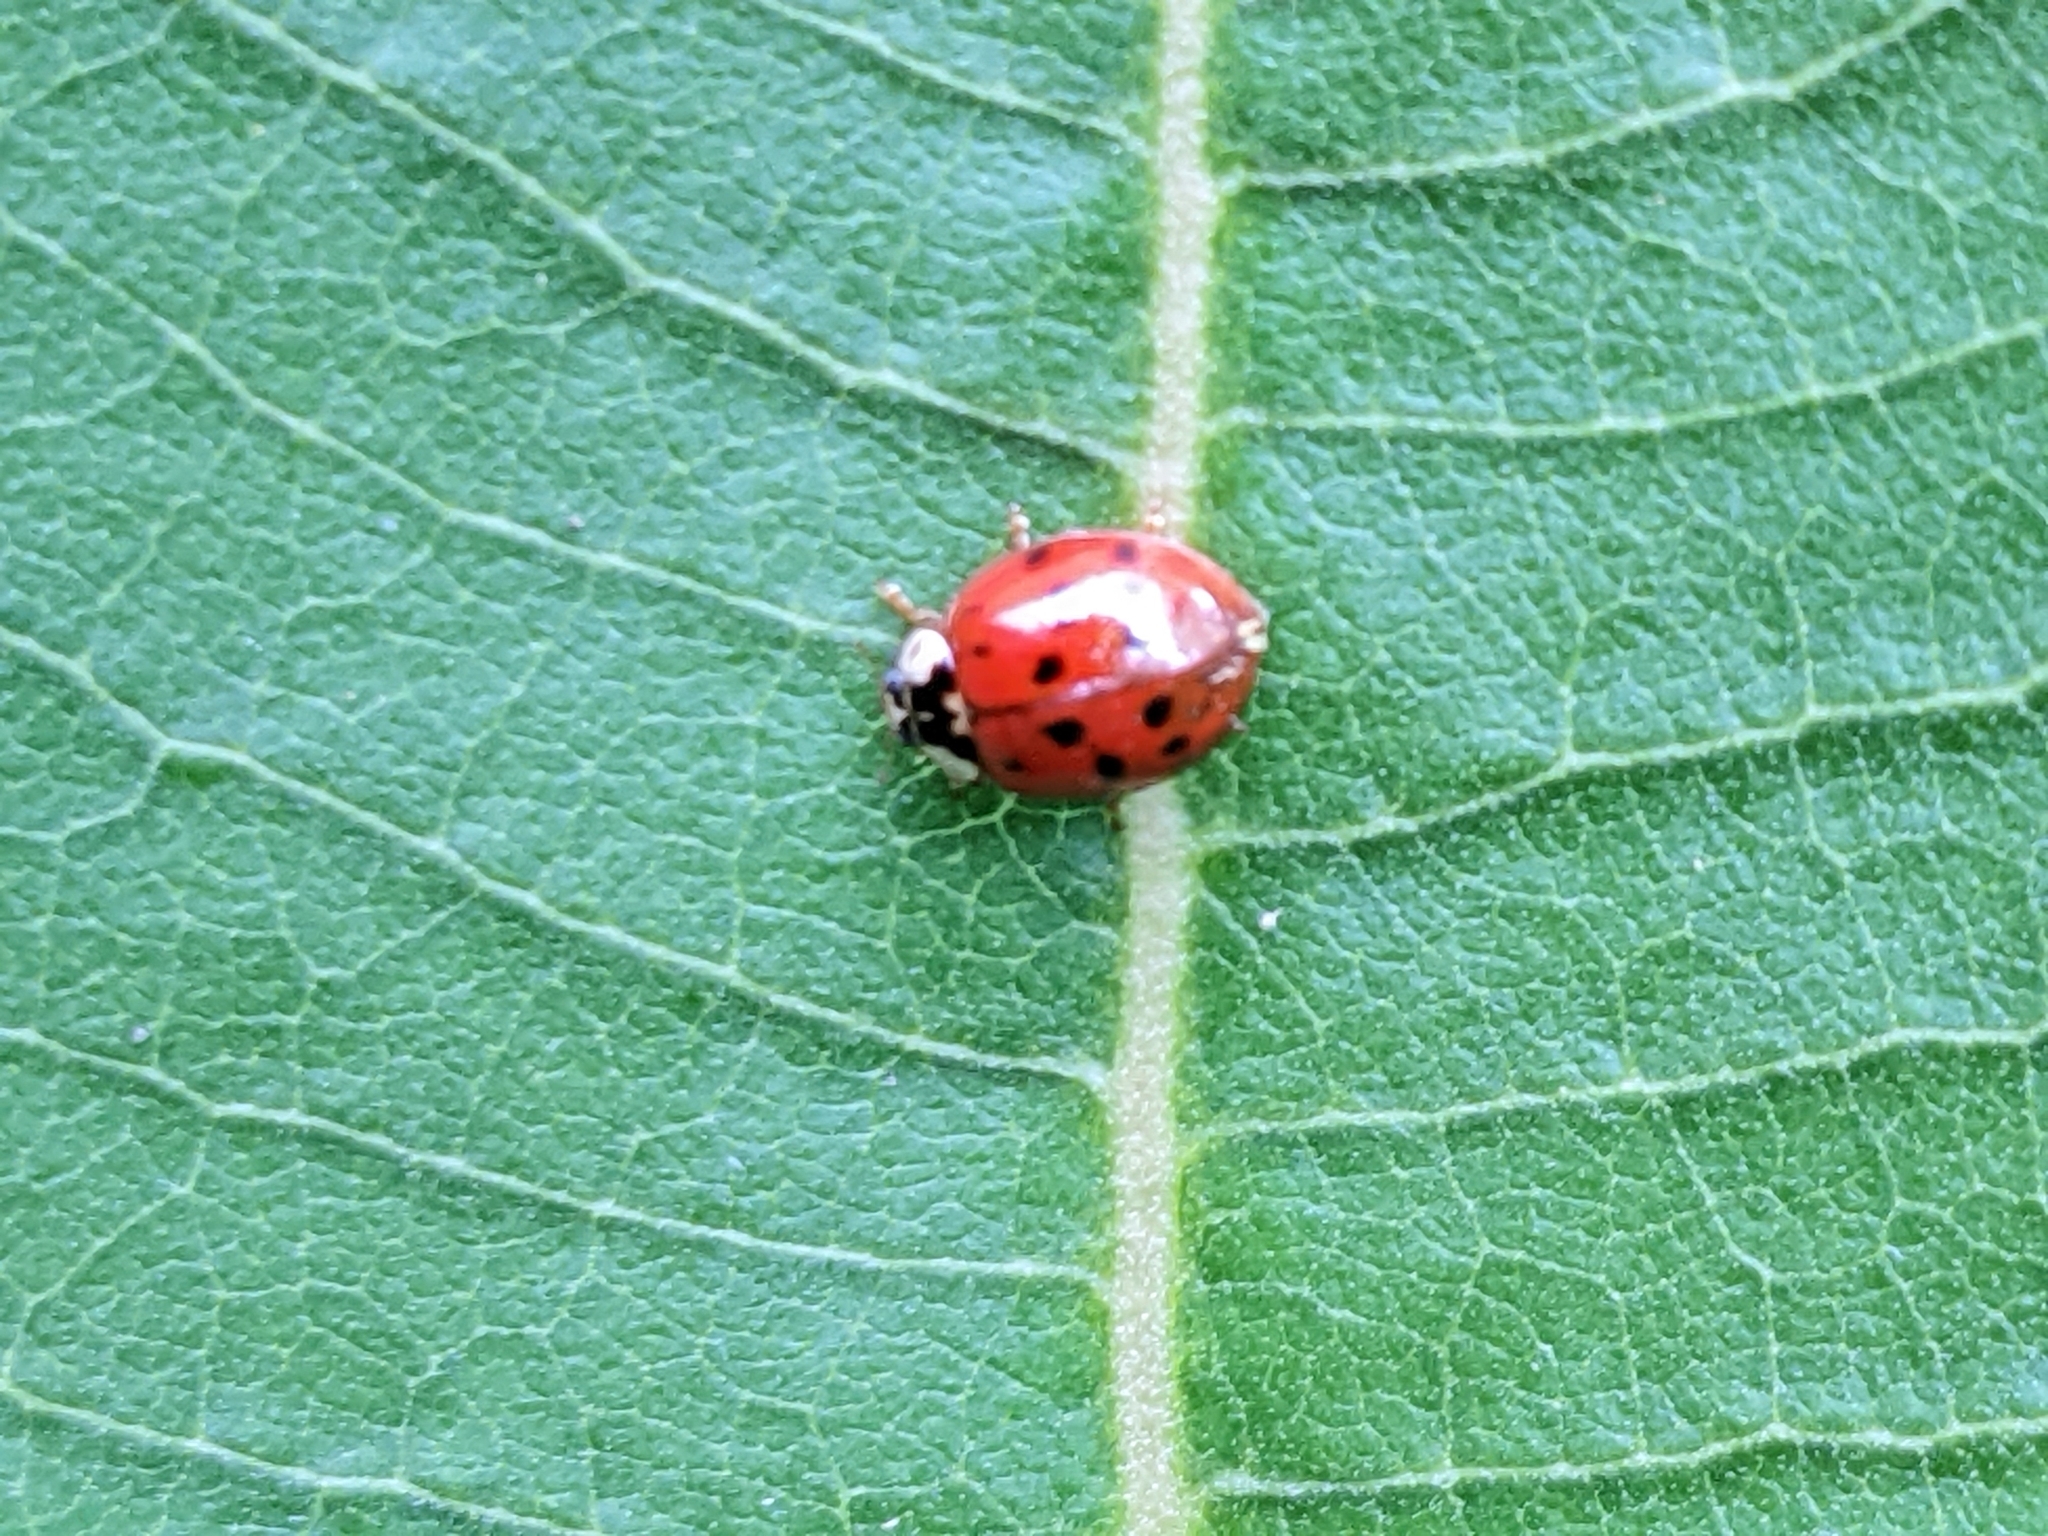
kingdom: Animalia
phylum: Arthropoda
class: Insecta
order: Coleoptera
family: Coccinellidae
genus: Harmonia
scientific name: Harmonia axyridis
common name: Harlequin ladybird
